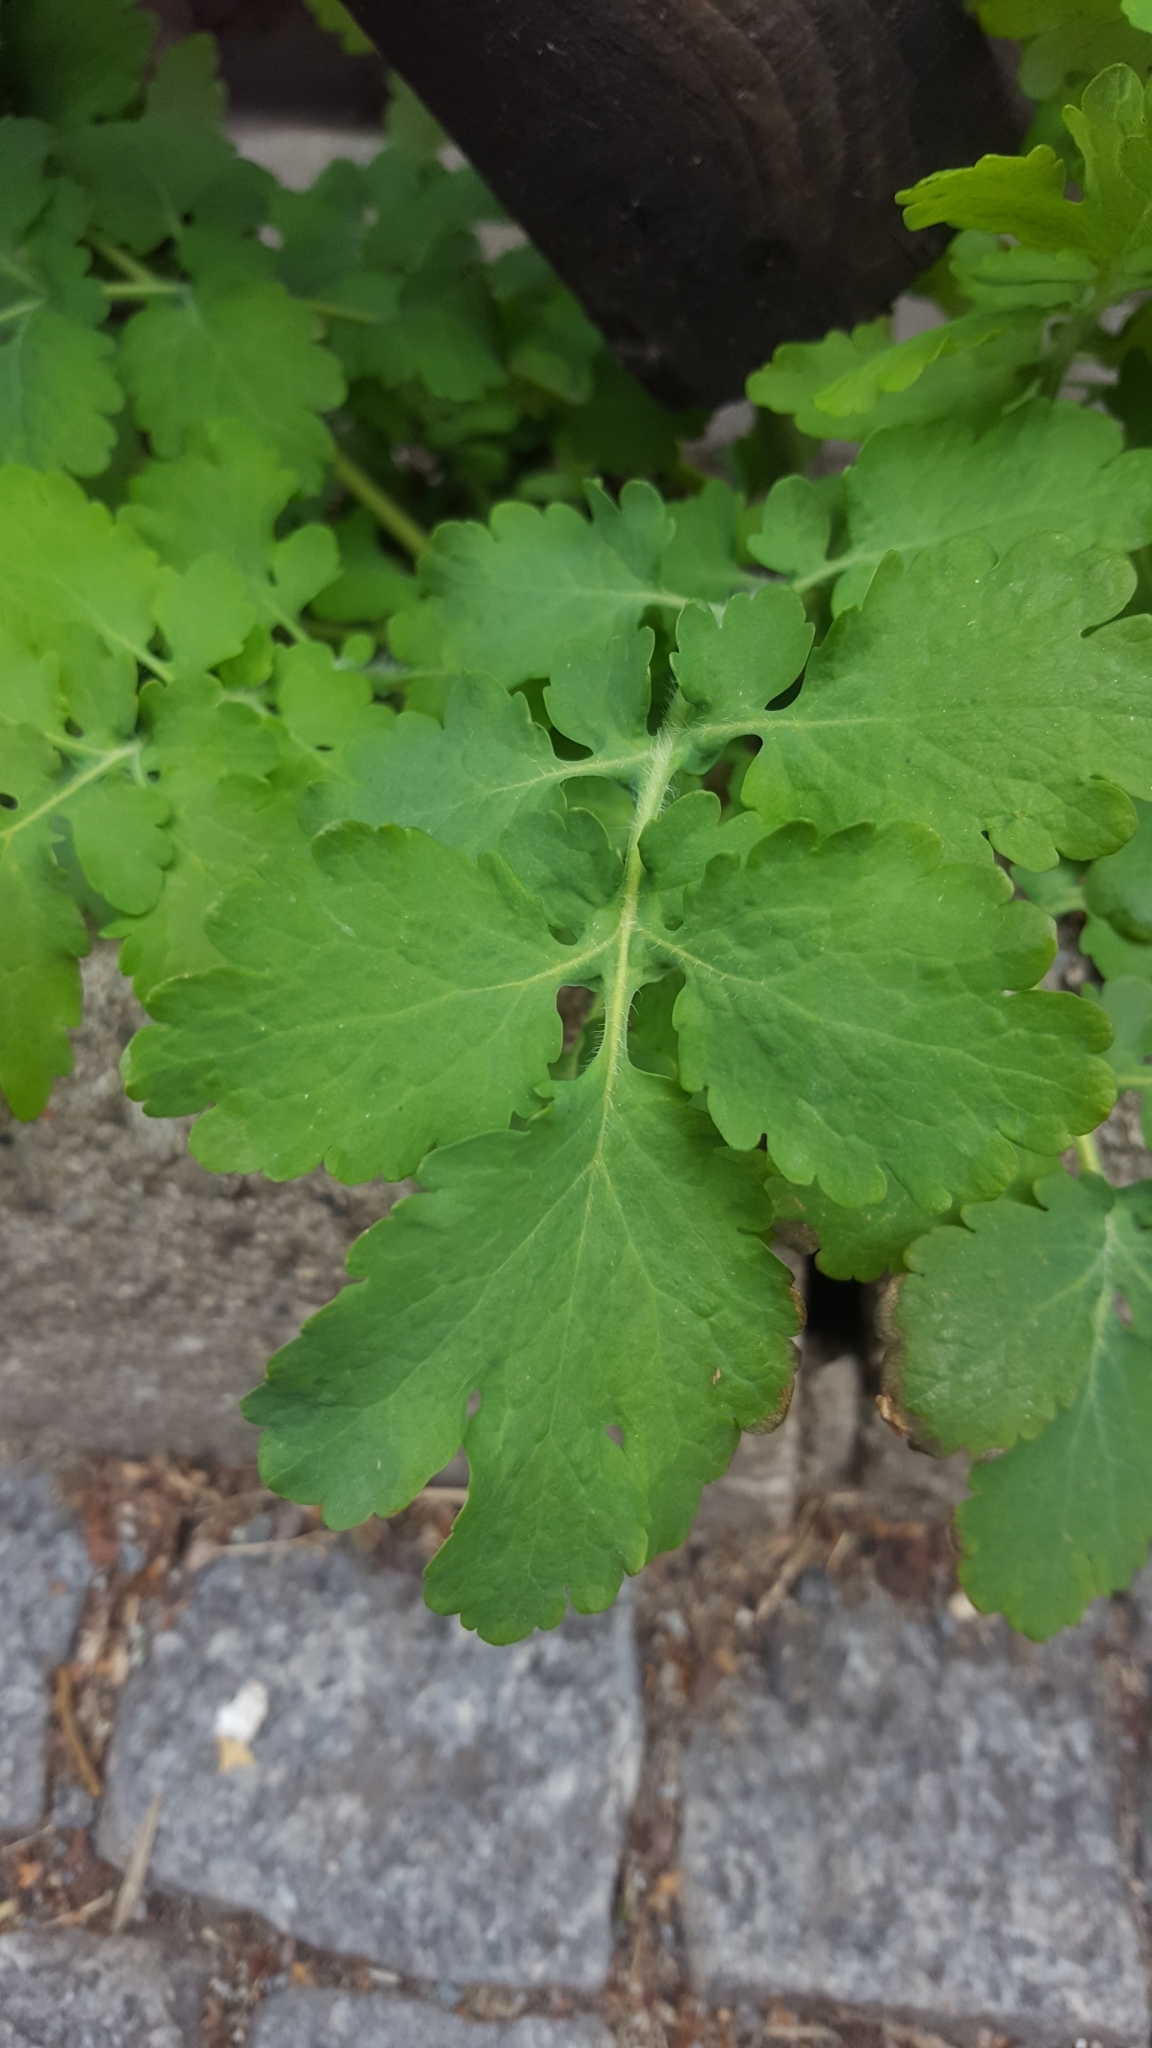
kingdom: Plantae
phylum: Tracheophyta
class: Magnoliopsida
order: Ranunculales
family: Papaveraceae
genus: Chelidonium
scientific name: Chelidonium majus
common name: Greater celandine
